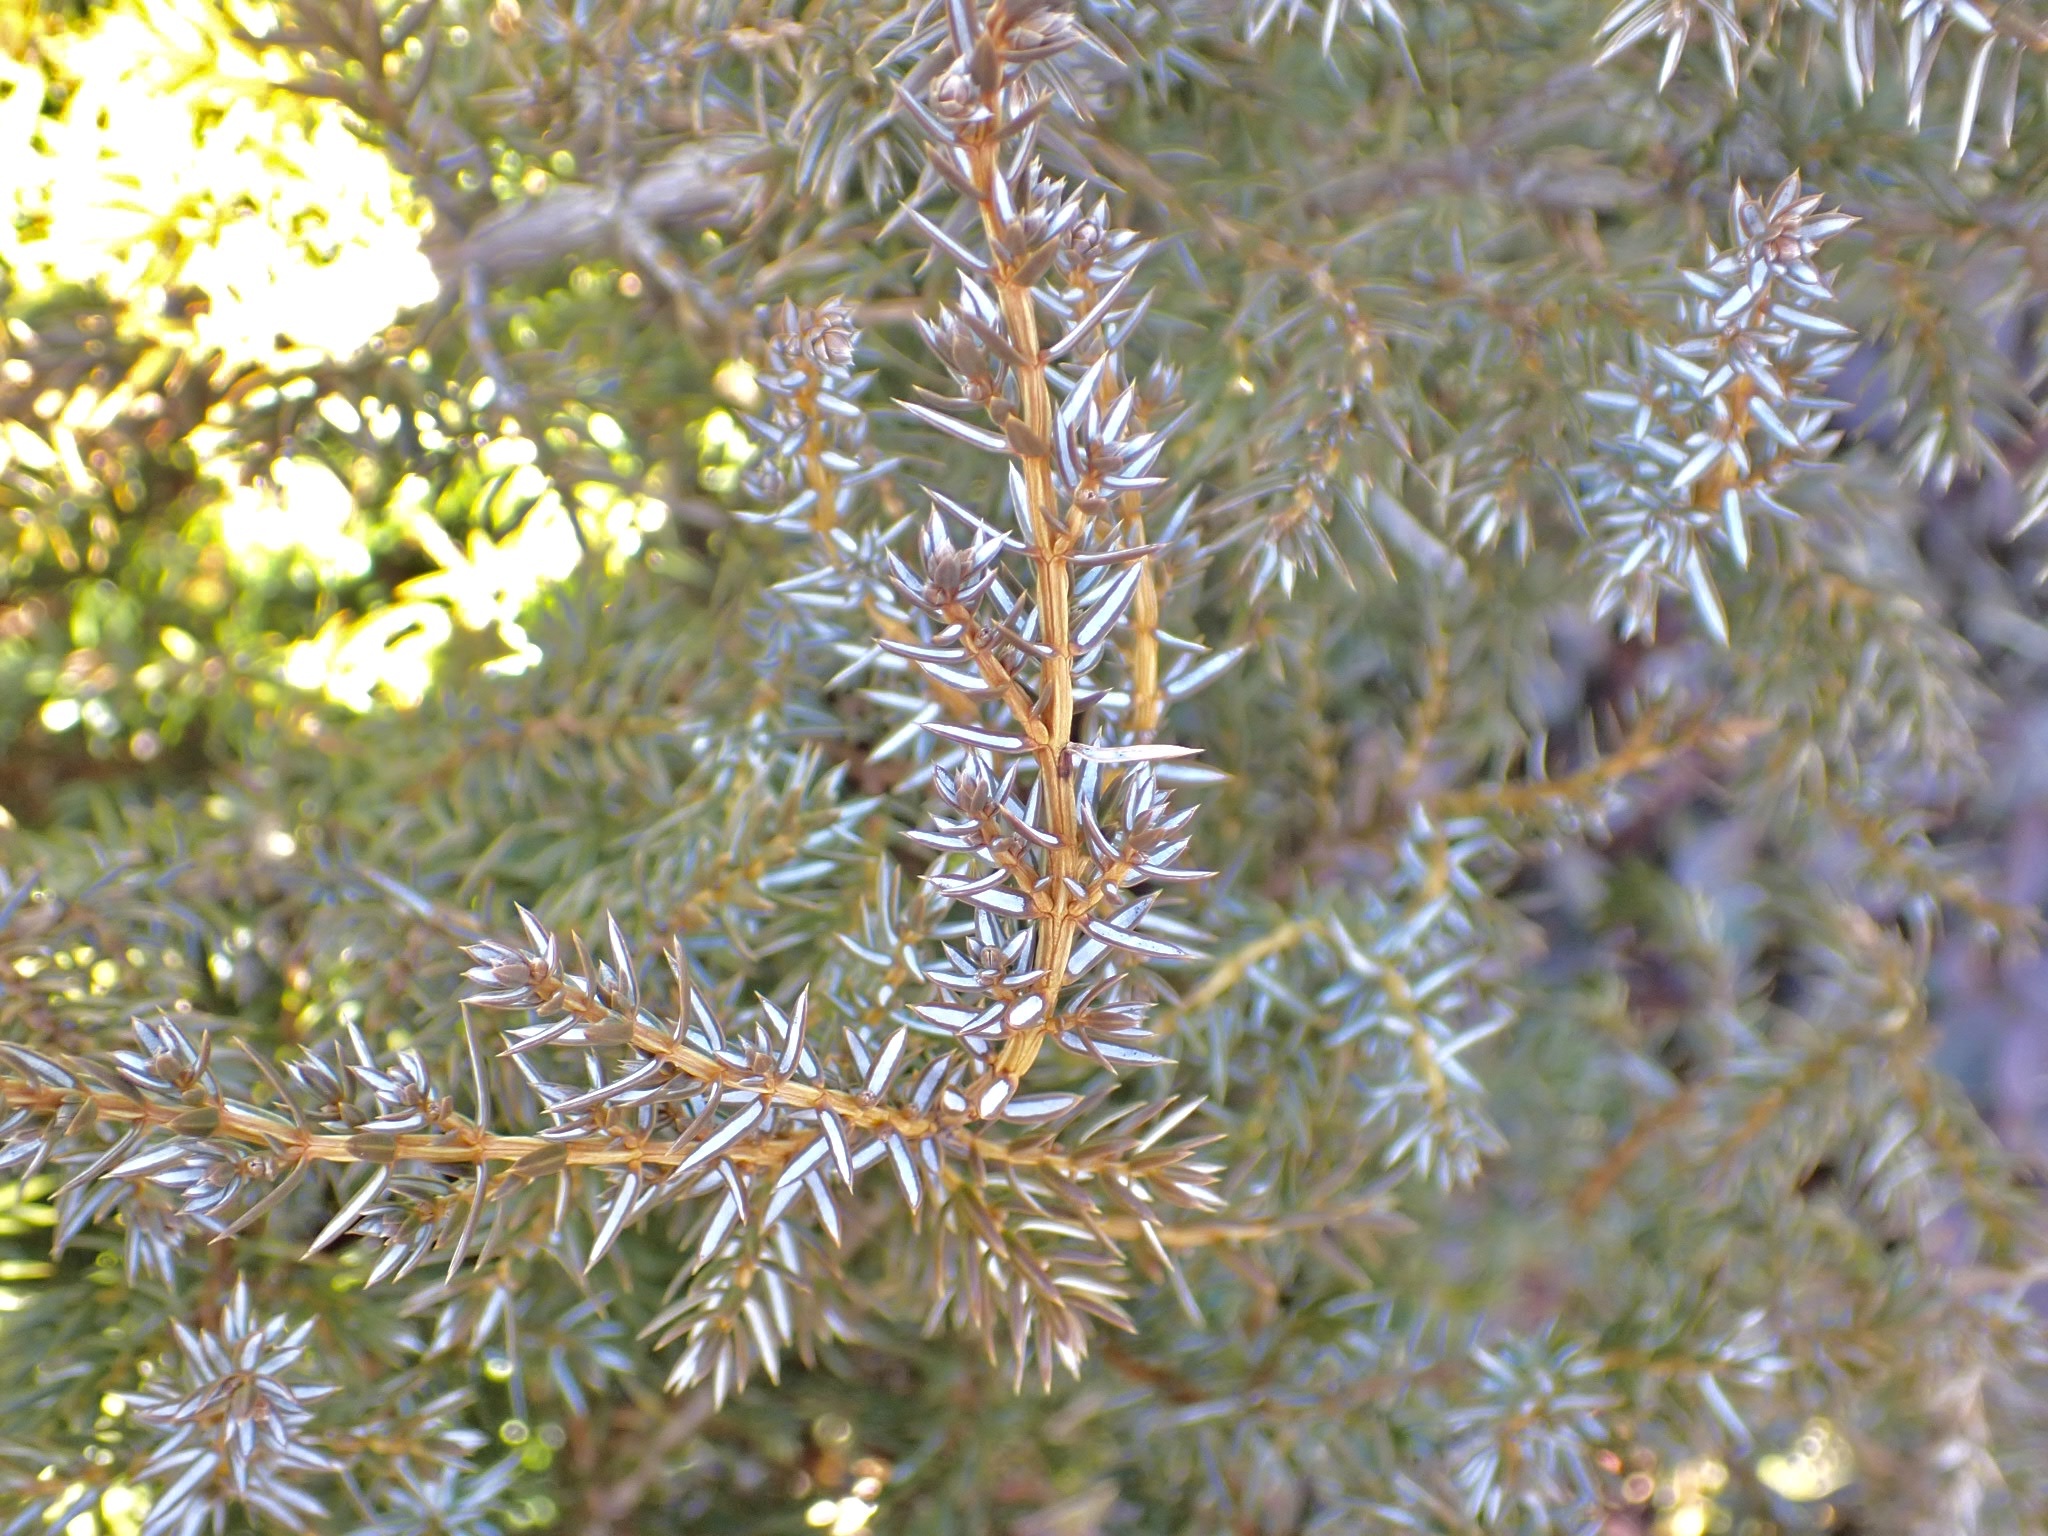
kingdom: Plantae
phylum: Tracheophyta
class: Pinopsida
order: Pinales
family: Cupressaceae
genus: Juniperus
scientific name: Juniperus communis
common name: Common juniper
